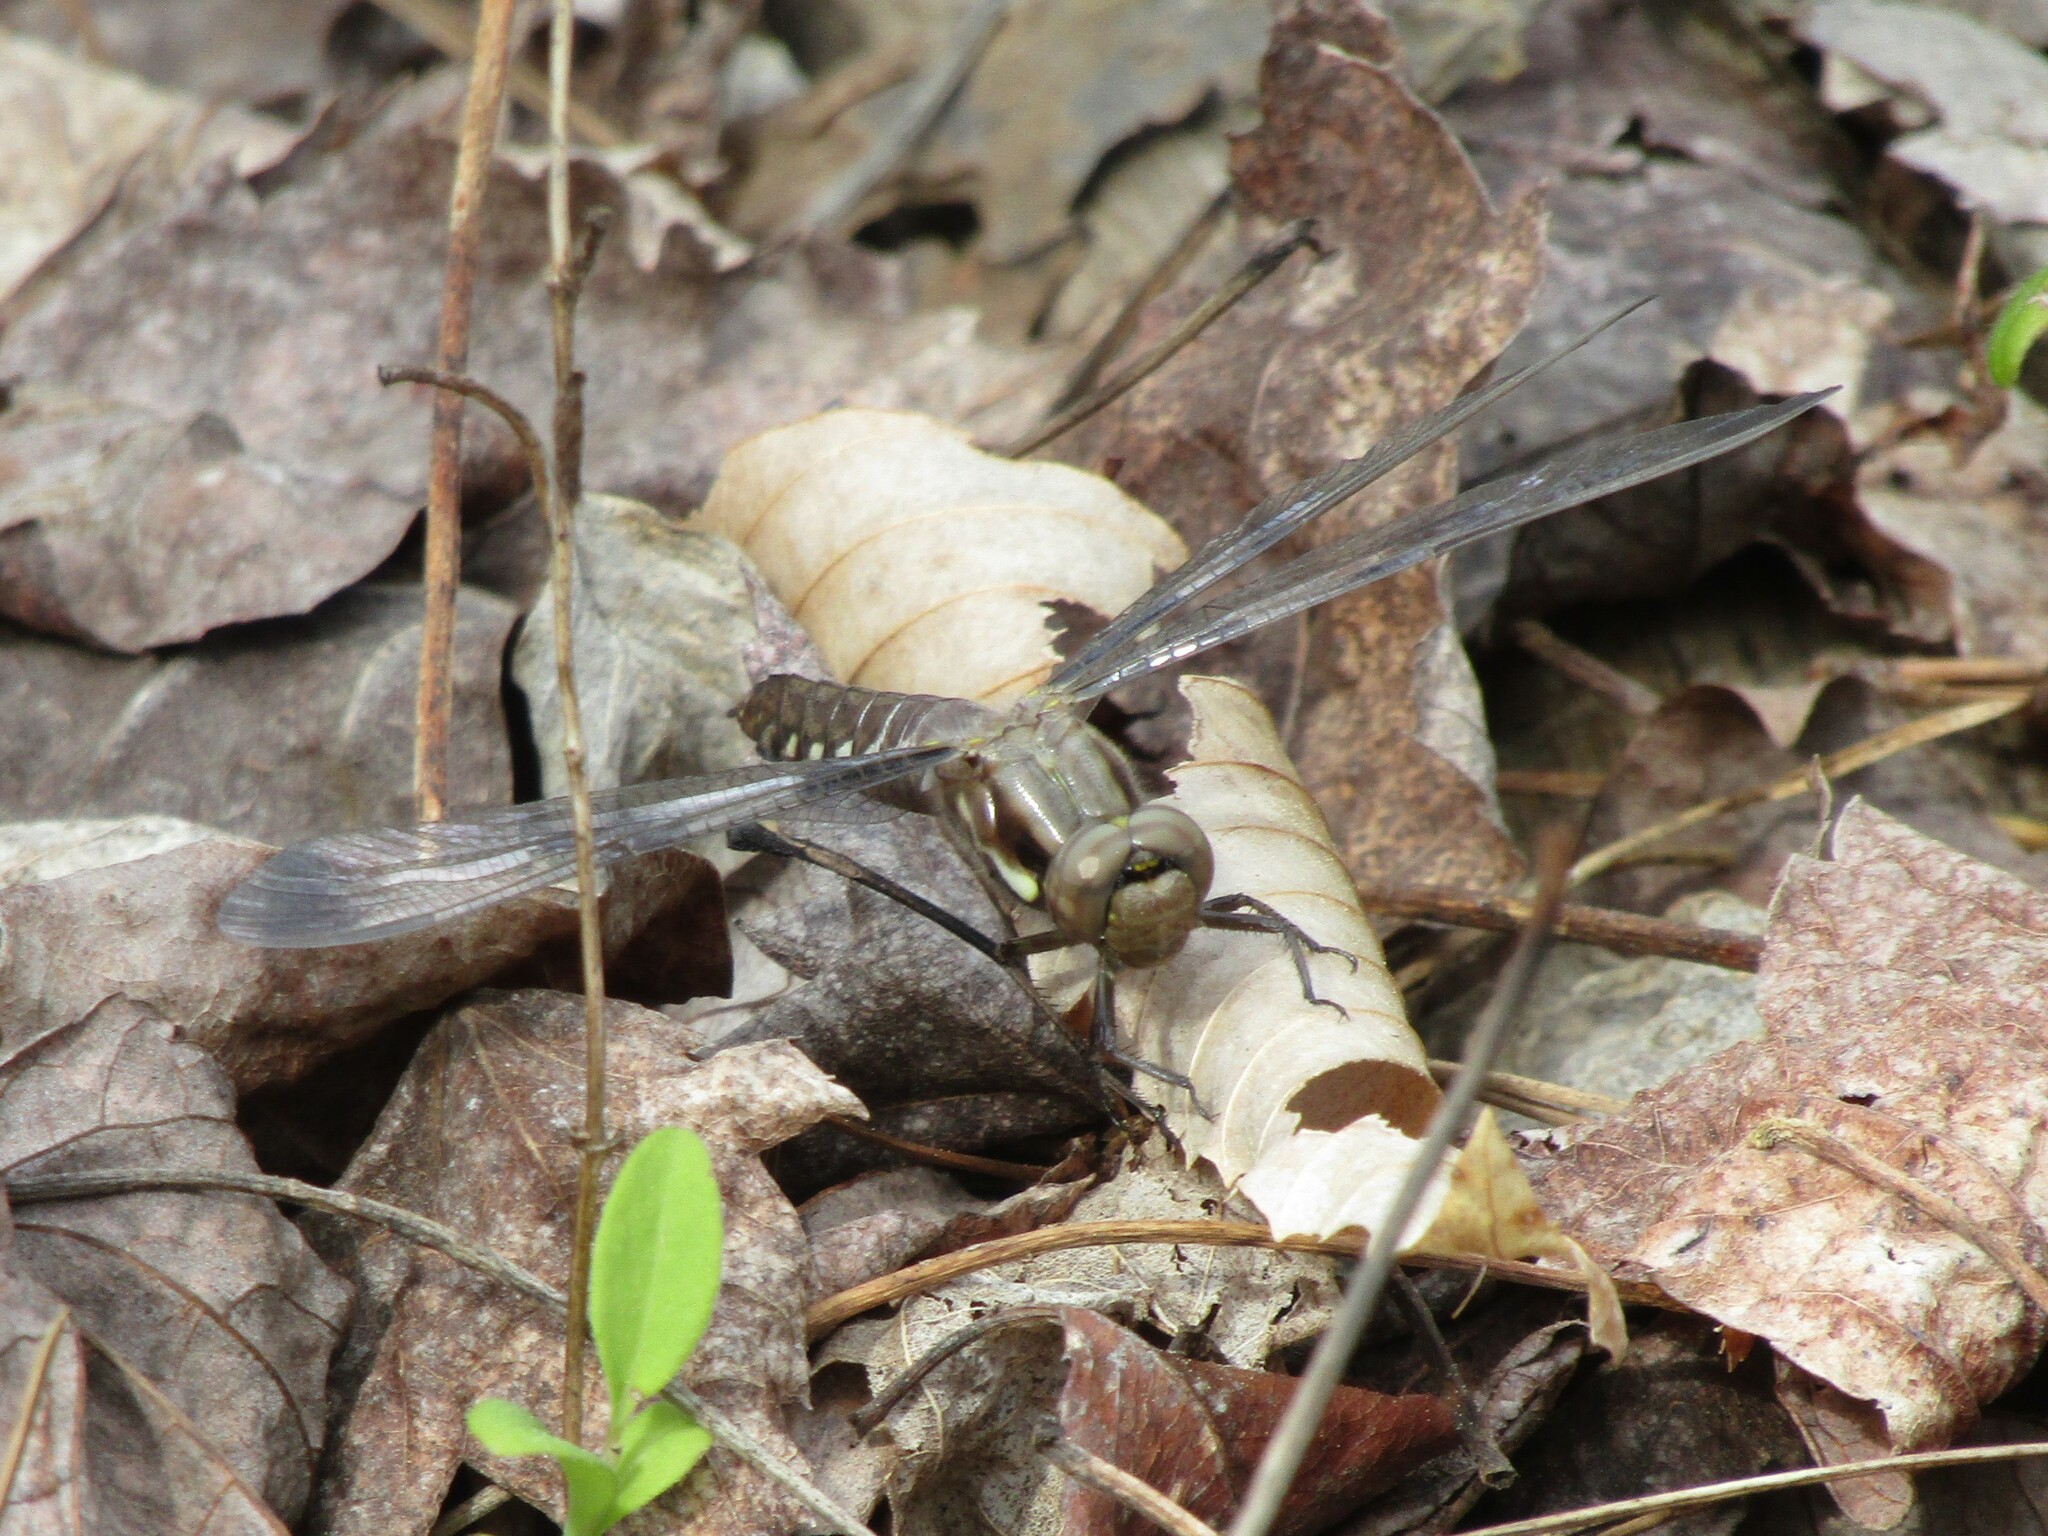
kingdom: Animalia
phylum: Arthropoda
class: Insecta
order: Odonata
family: Libellulidae
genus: Plathemis
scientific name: Plathemis lydia
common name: Common whitetail
